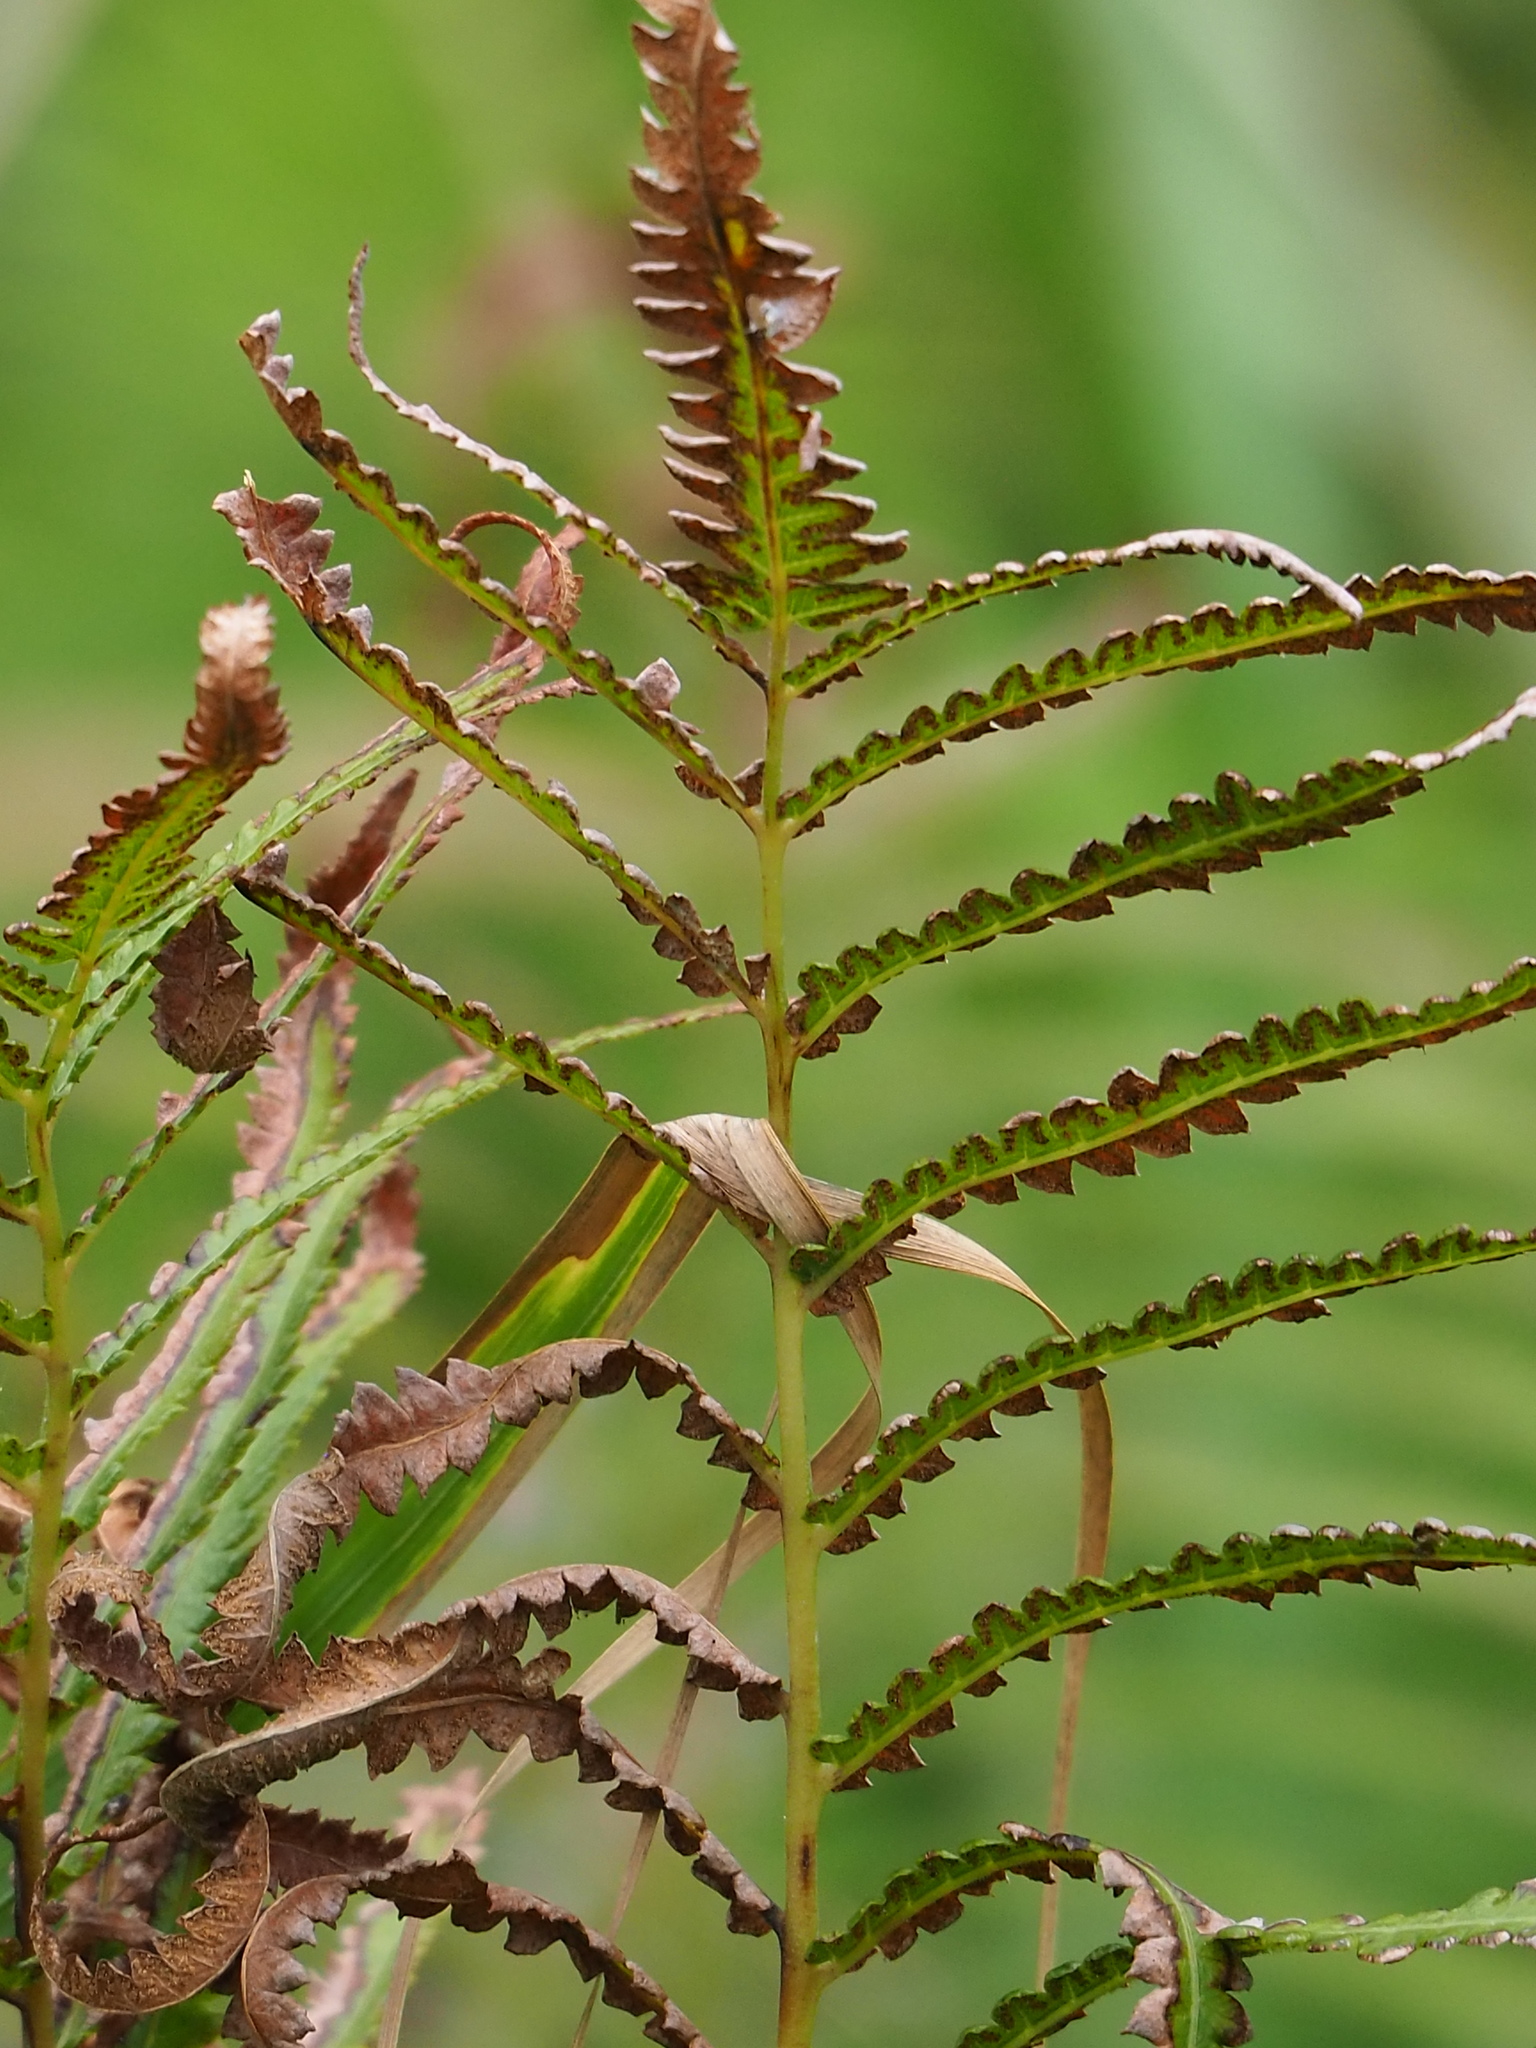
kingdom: Plantae
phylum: Tracheophyta
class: Polypodiopsida
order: Polypodiales
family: Thelypteridaceae
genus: Cyclosorus
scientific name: Cyclosorus interruptus
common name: Neke fern
